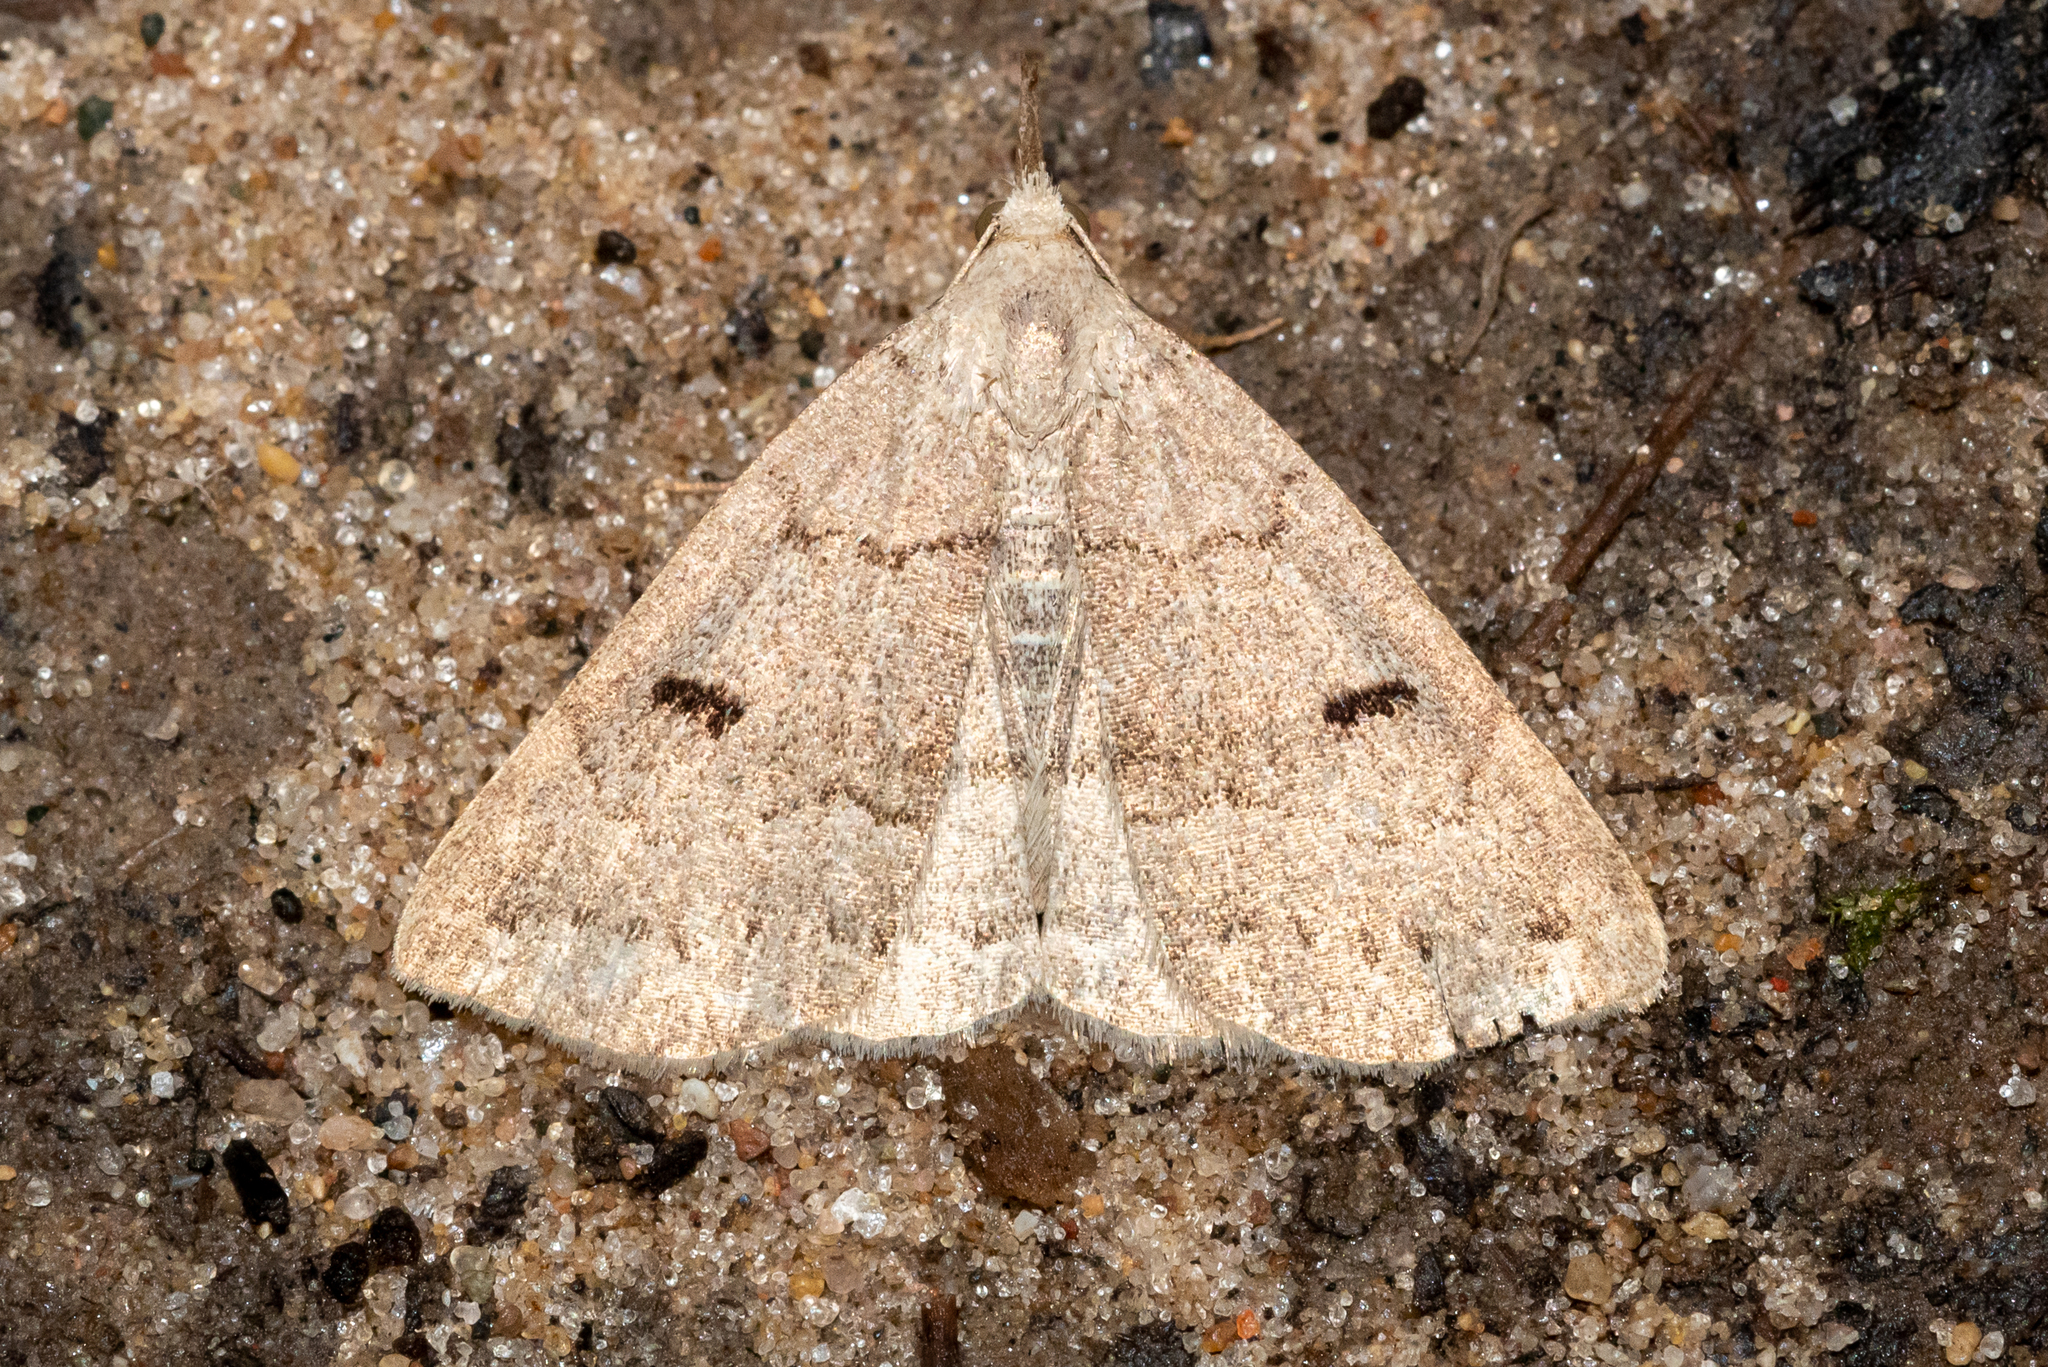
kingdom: Animalia
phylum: Arthropoda
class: Insecta
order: Lepidoptera
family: Erebidae
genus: Macrochilo
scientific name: Macrochilo morbidalis
